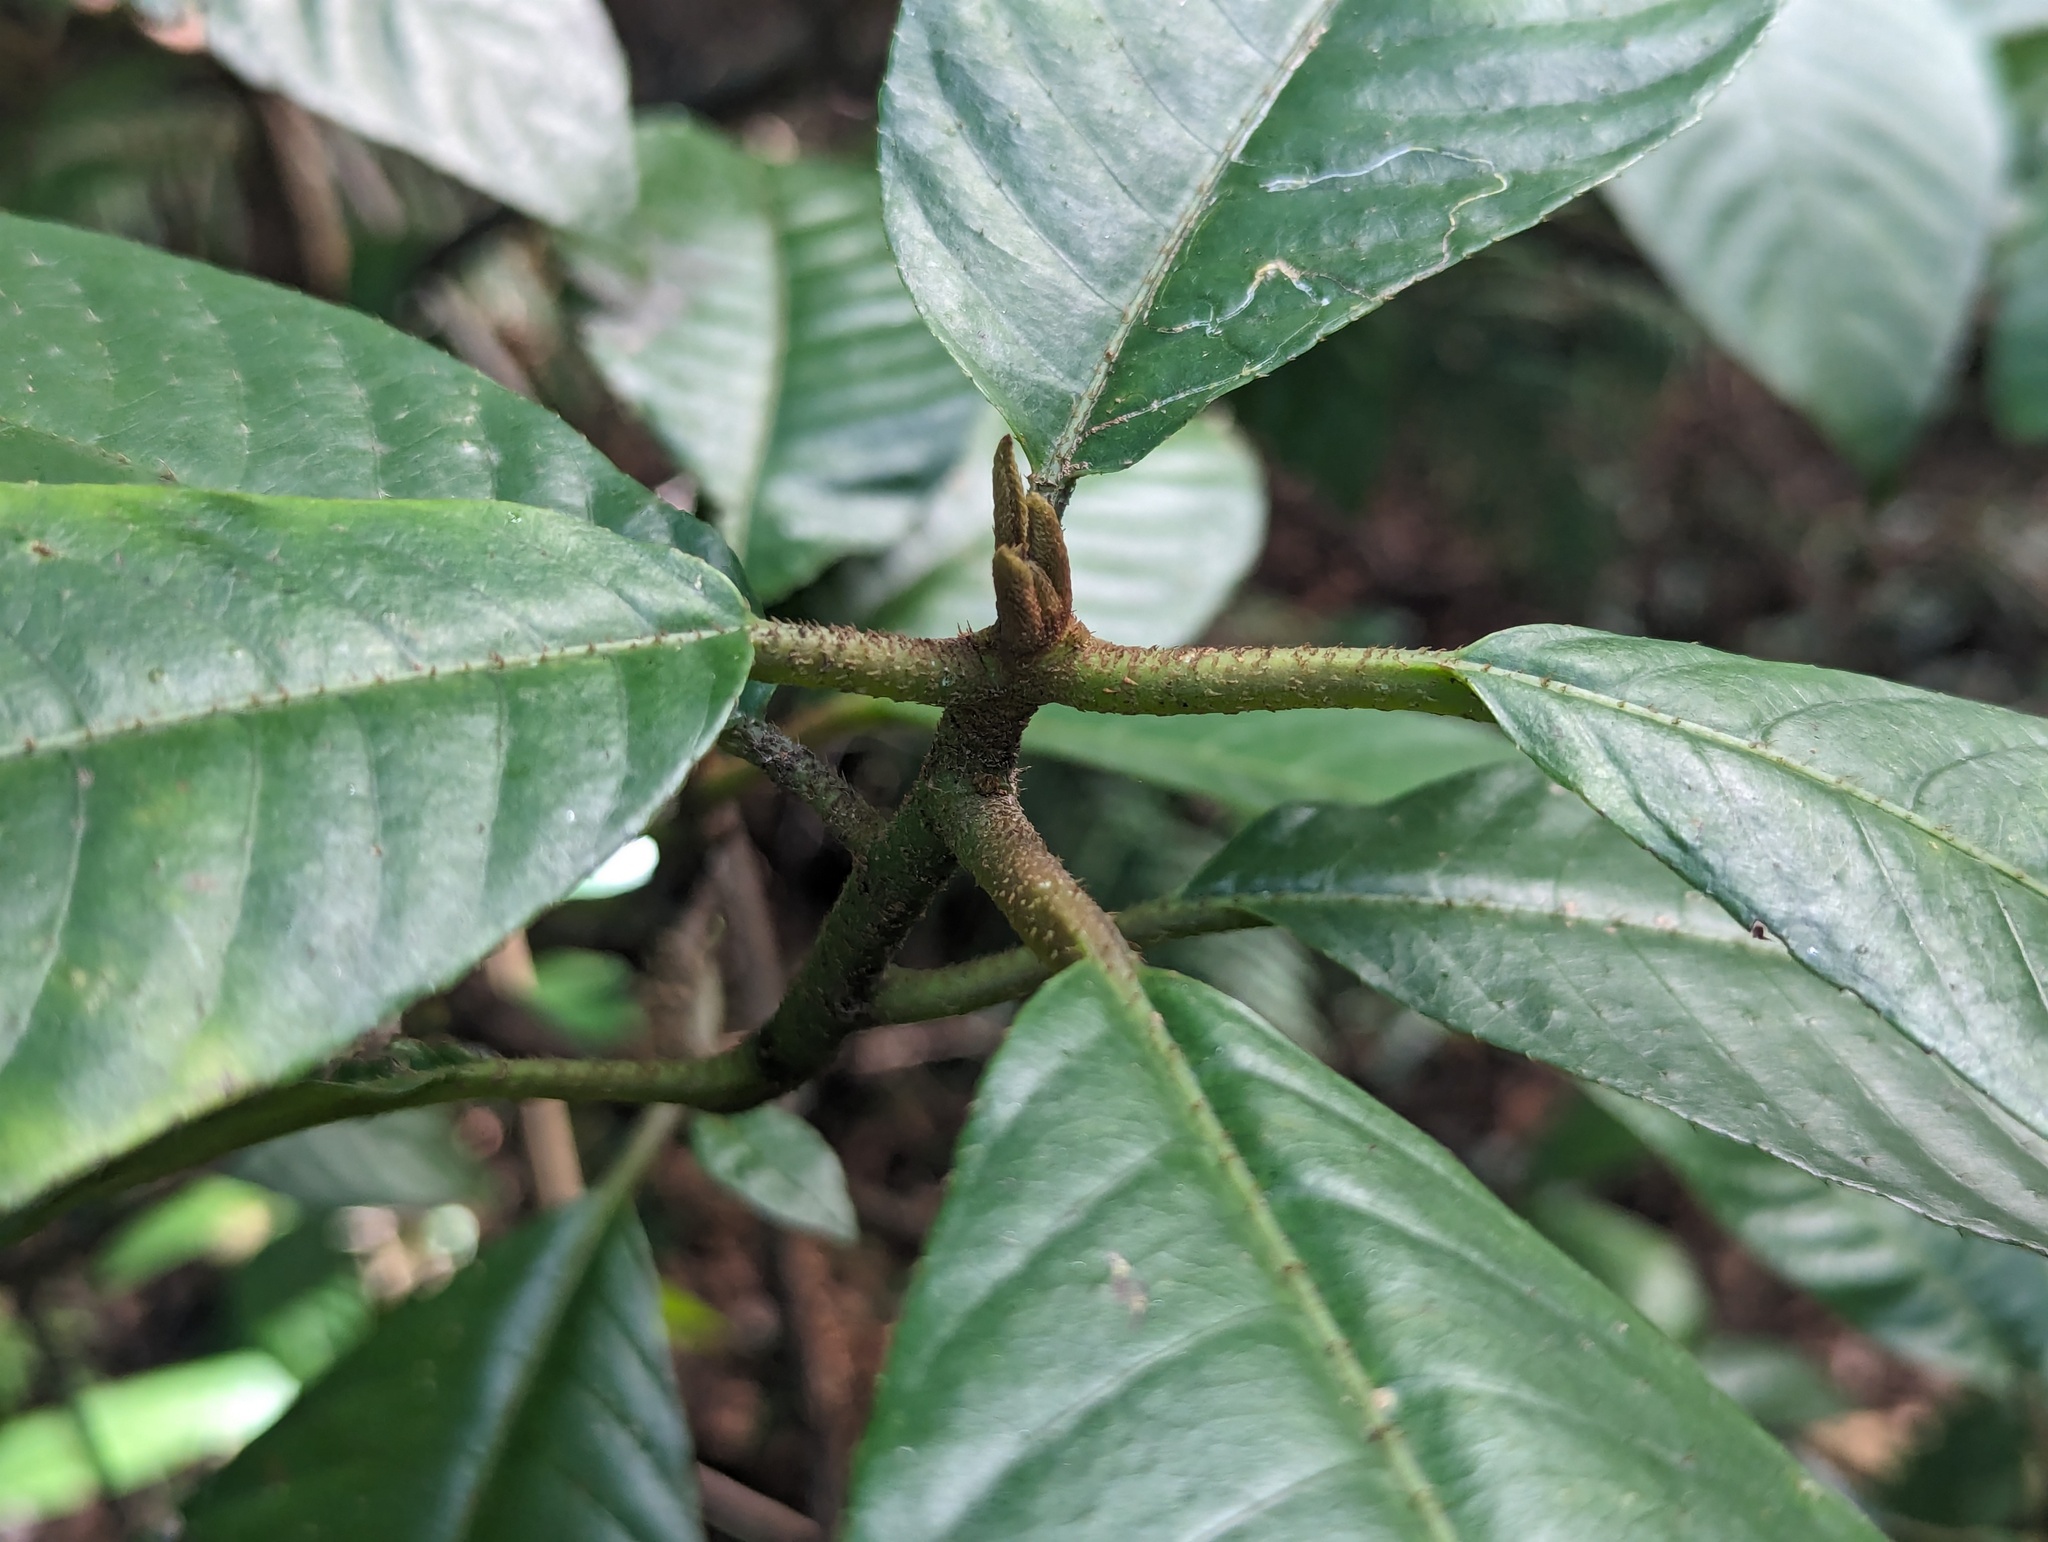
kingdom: Plantae
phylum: Tracheophyta
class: Magnoliopsida
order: Ericales
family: Actinidiaceae
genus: Saurauia
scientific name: Saurauia tristyla
